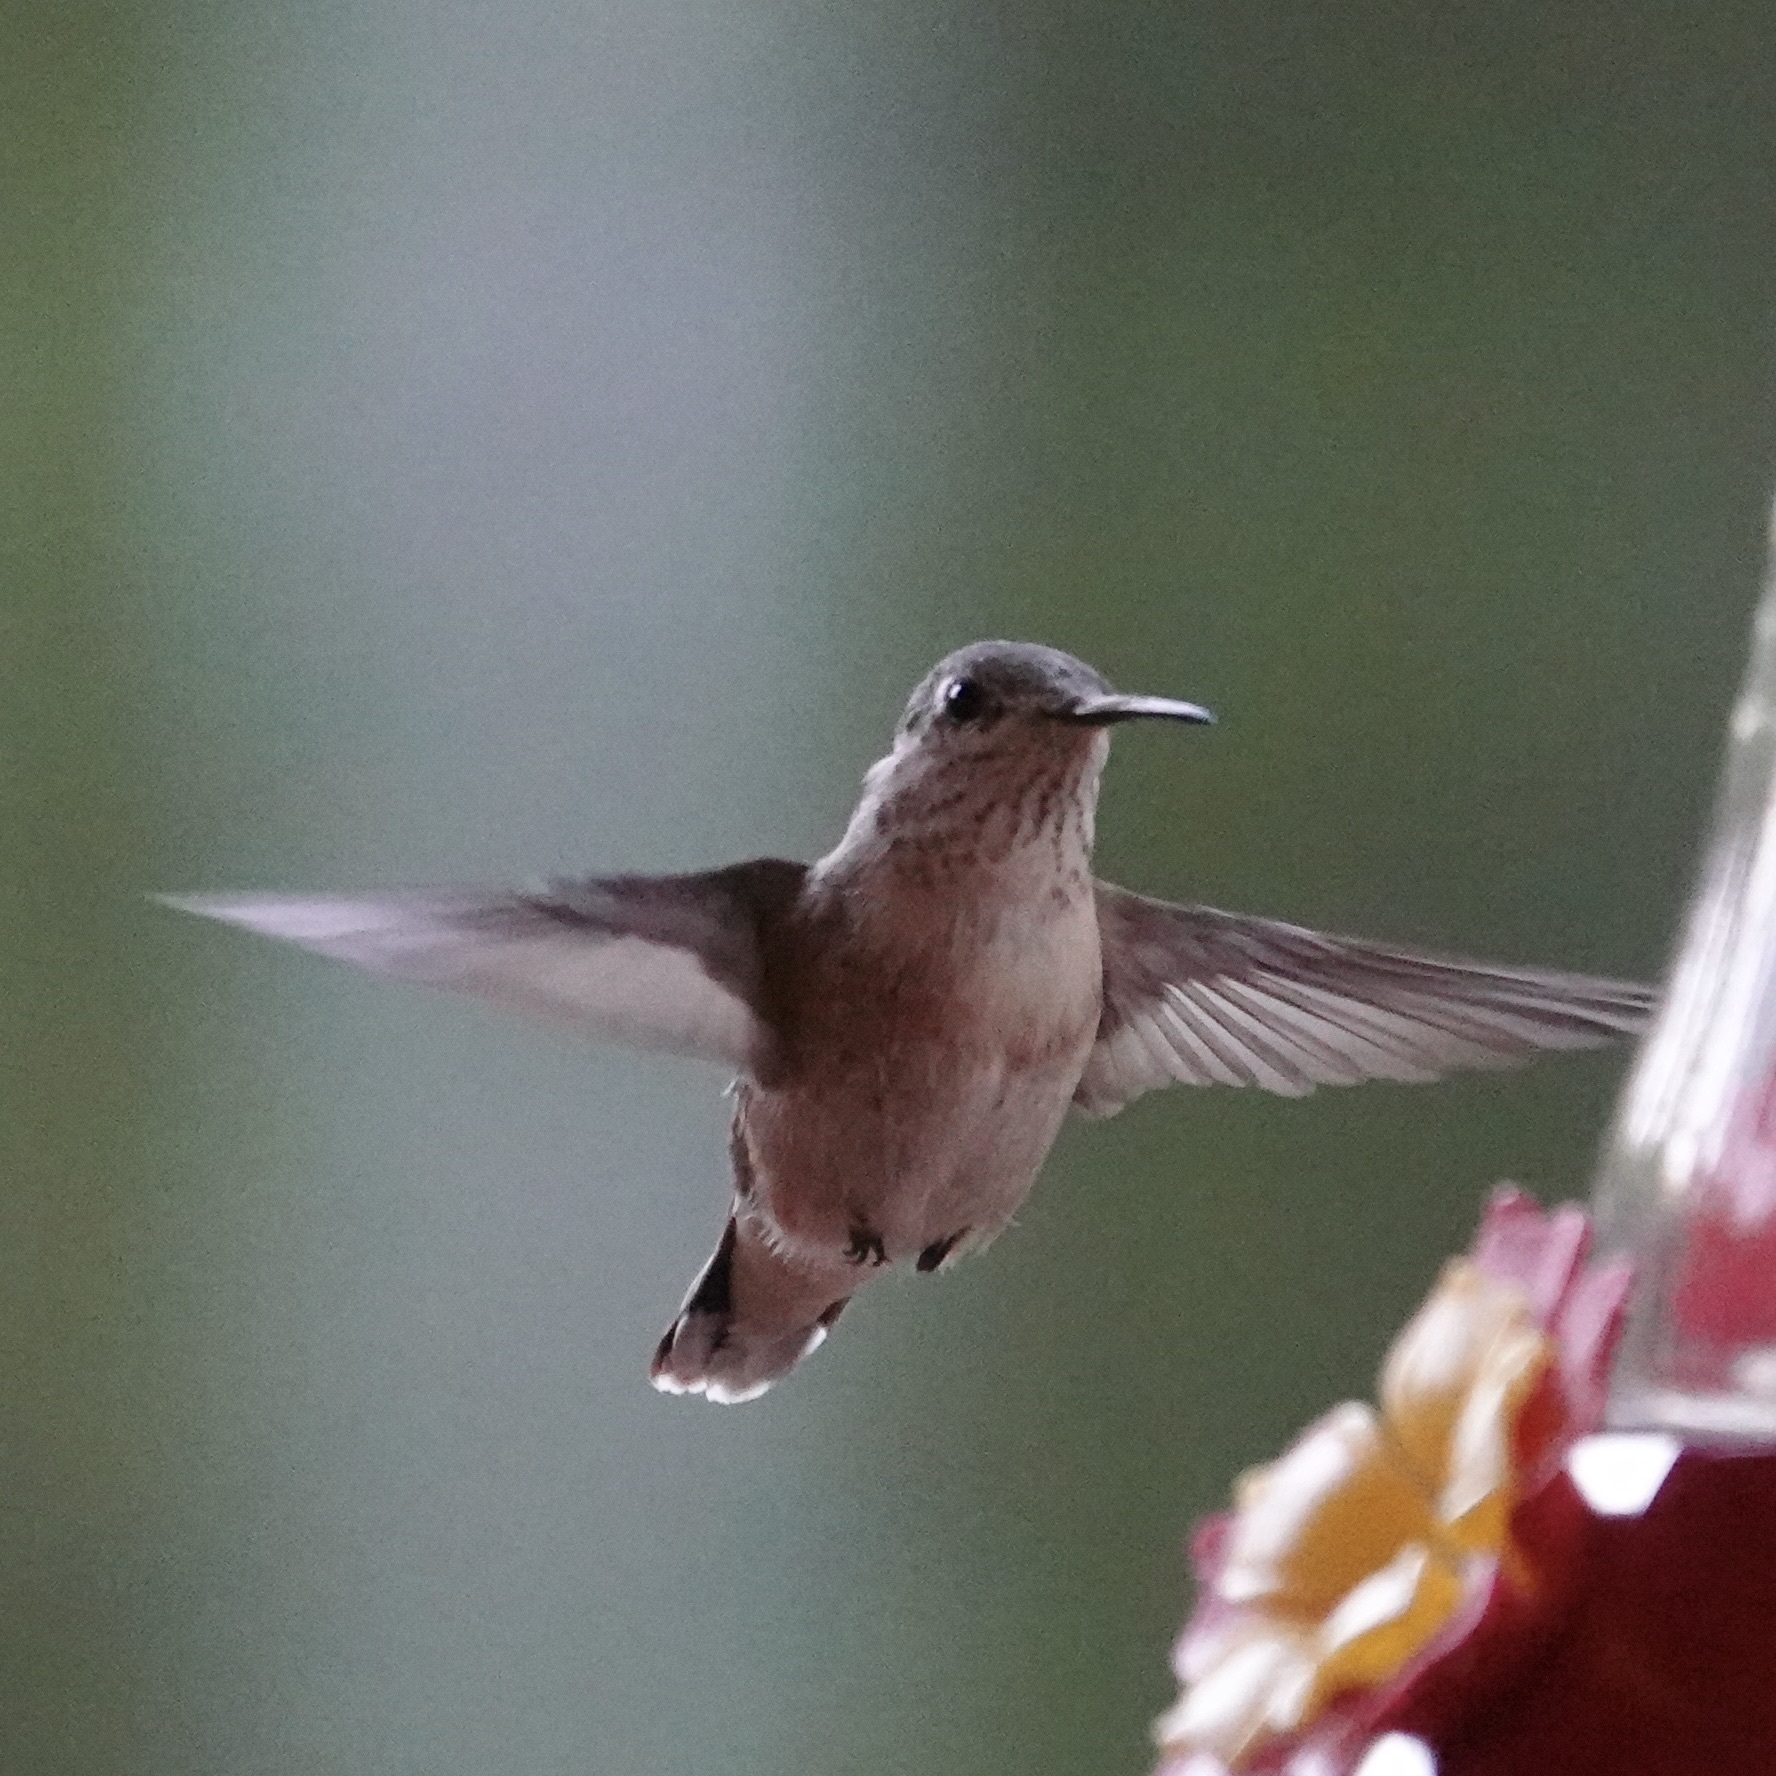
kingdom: Animalia
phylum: Chordata
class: Aves
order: Apodiformes
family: Trochilidae
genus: Selasphorus
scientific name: Selasphorus calliope
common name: Calliope hummingbird
